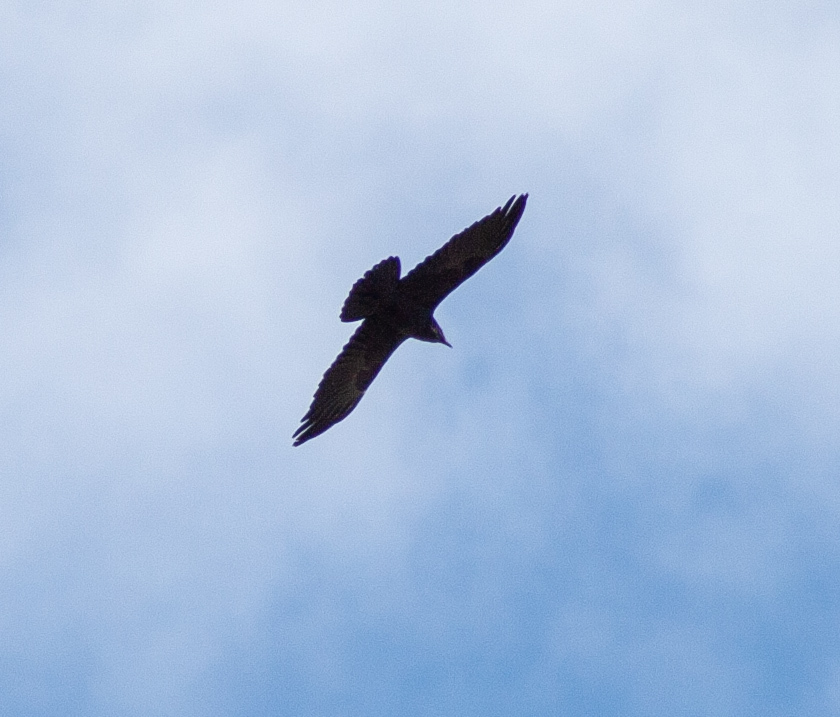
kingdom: Animalia
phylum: Chordata
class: Aves
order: Passeriformes
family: Corvidae
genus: Corvus
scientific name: Corvus corax
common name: Common raven
